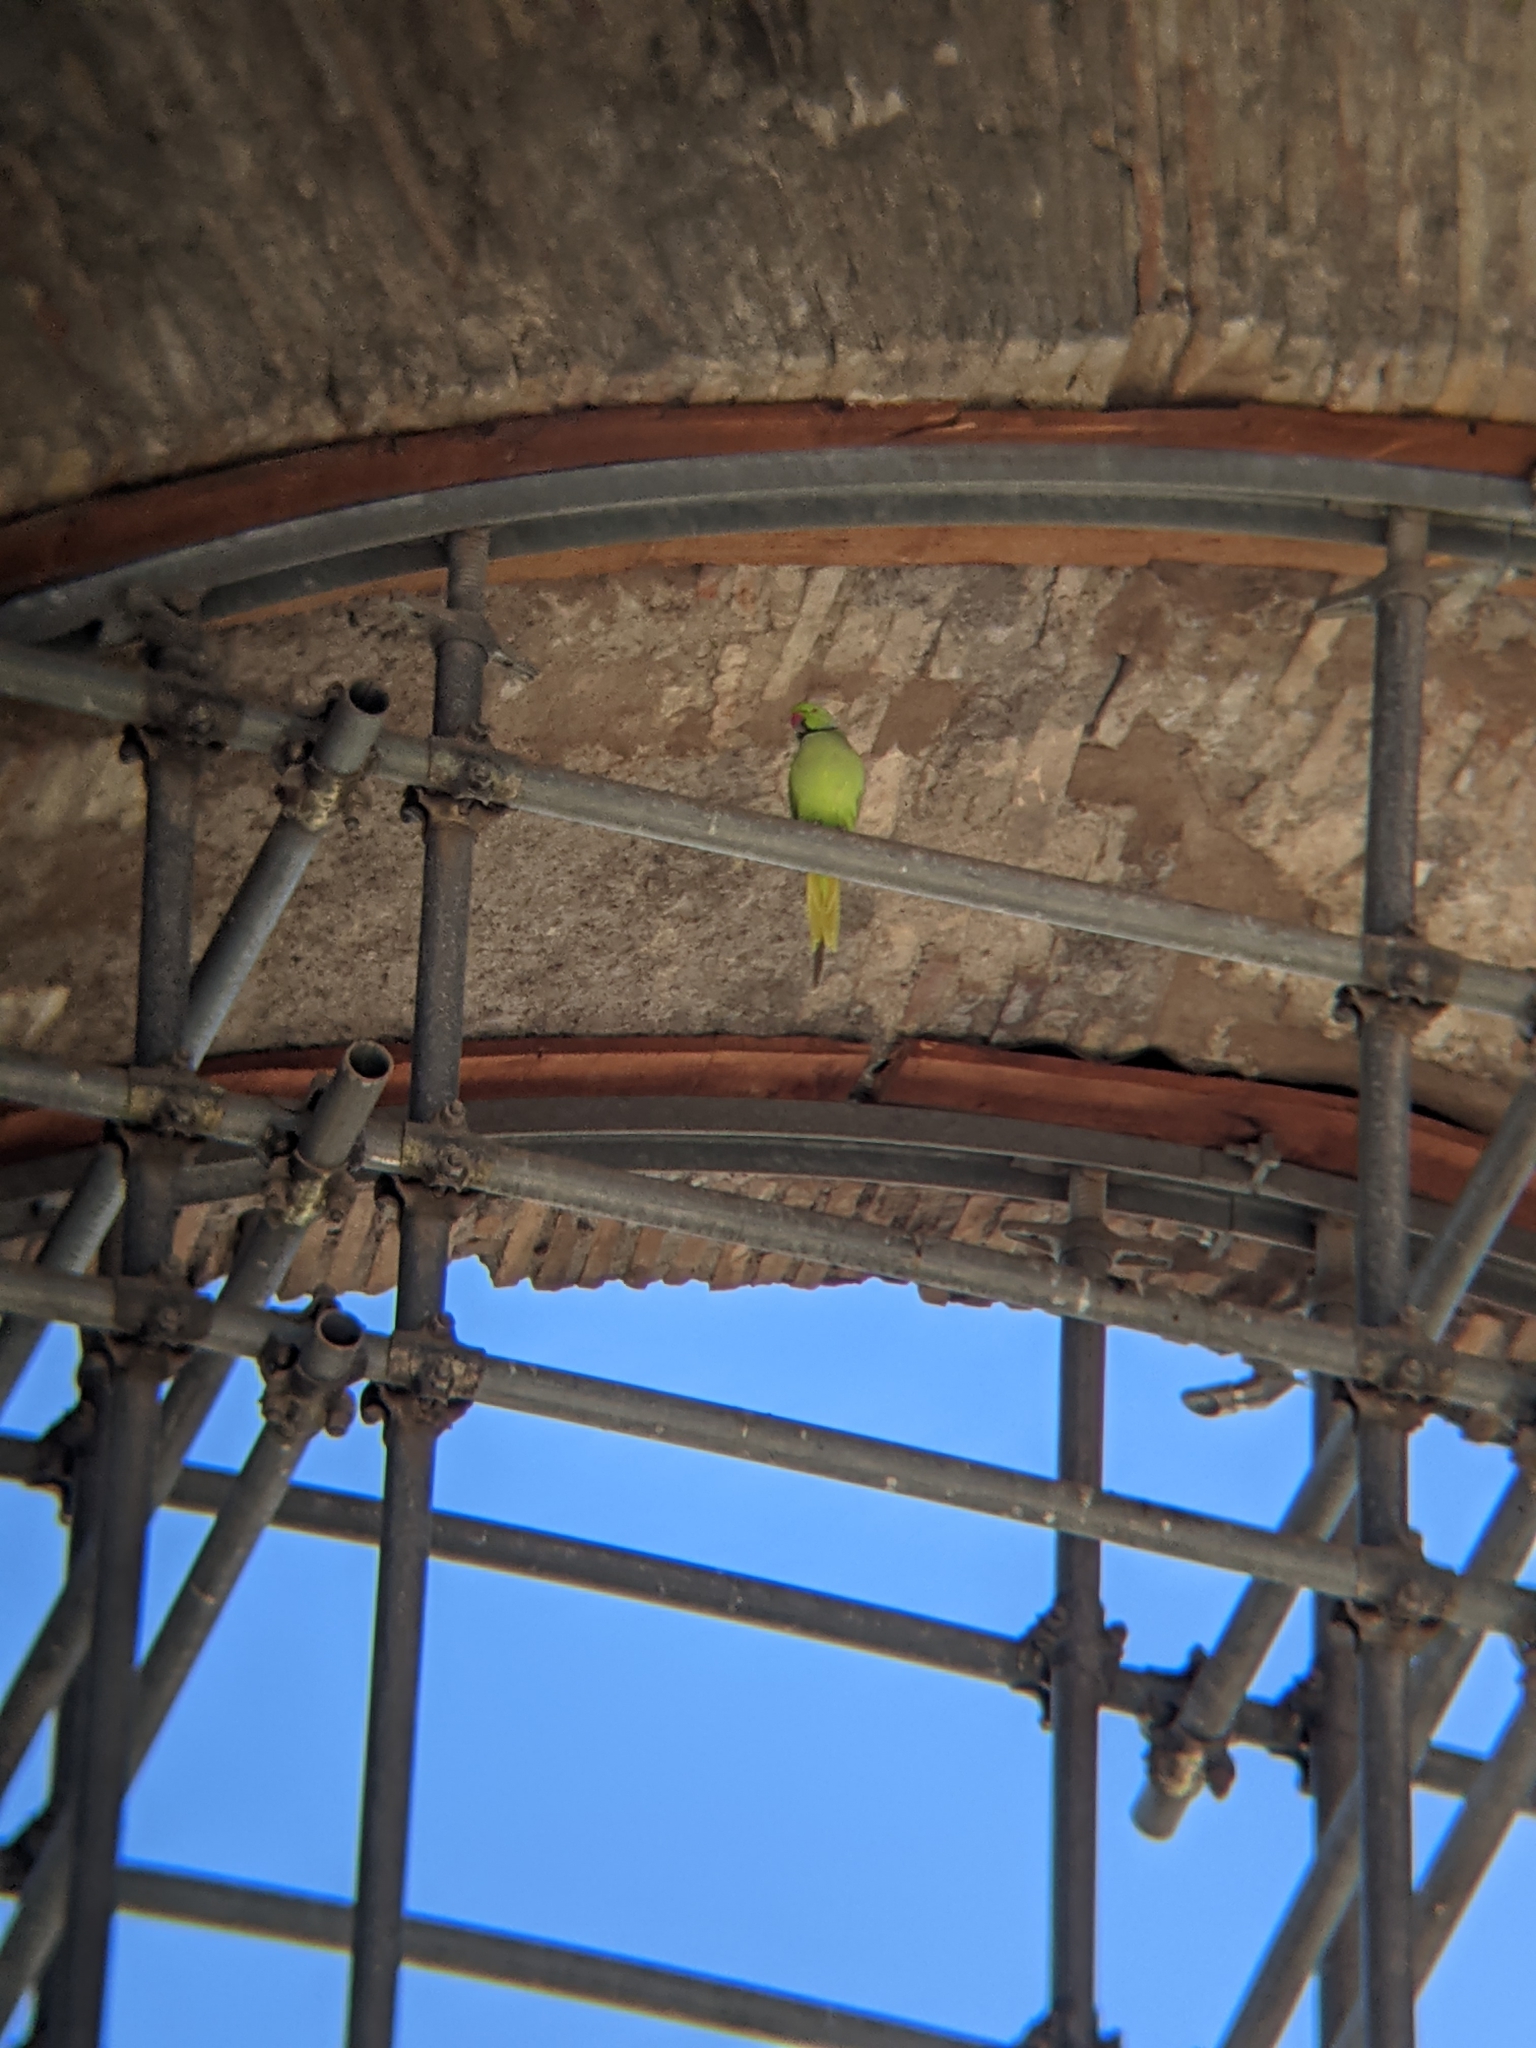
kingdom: Animalia
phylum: Chordata
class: Aves
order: Psittaciformes
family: Psittacidae
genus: Psittacula
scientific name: Psittacula krameri
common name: Rose-ringed parakeet
